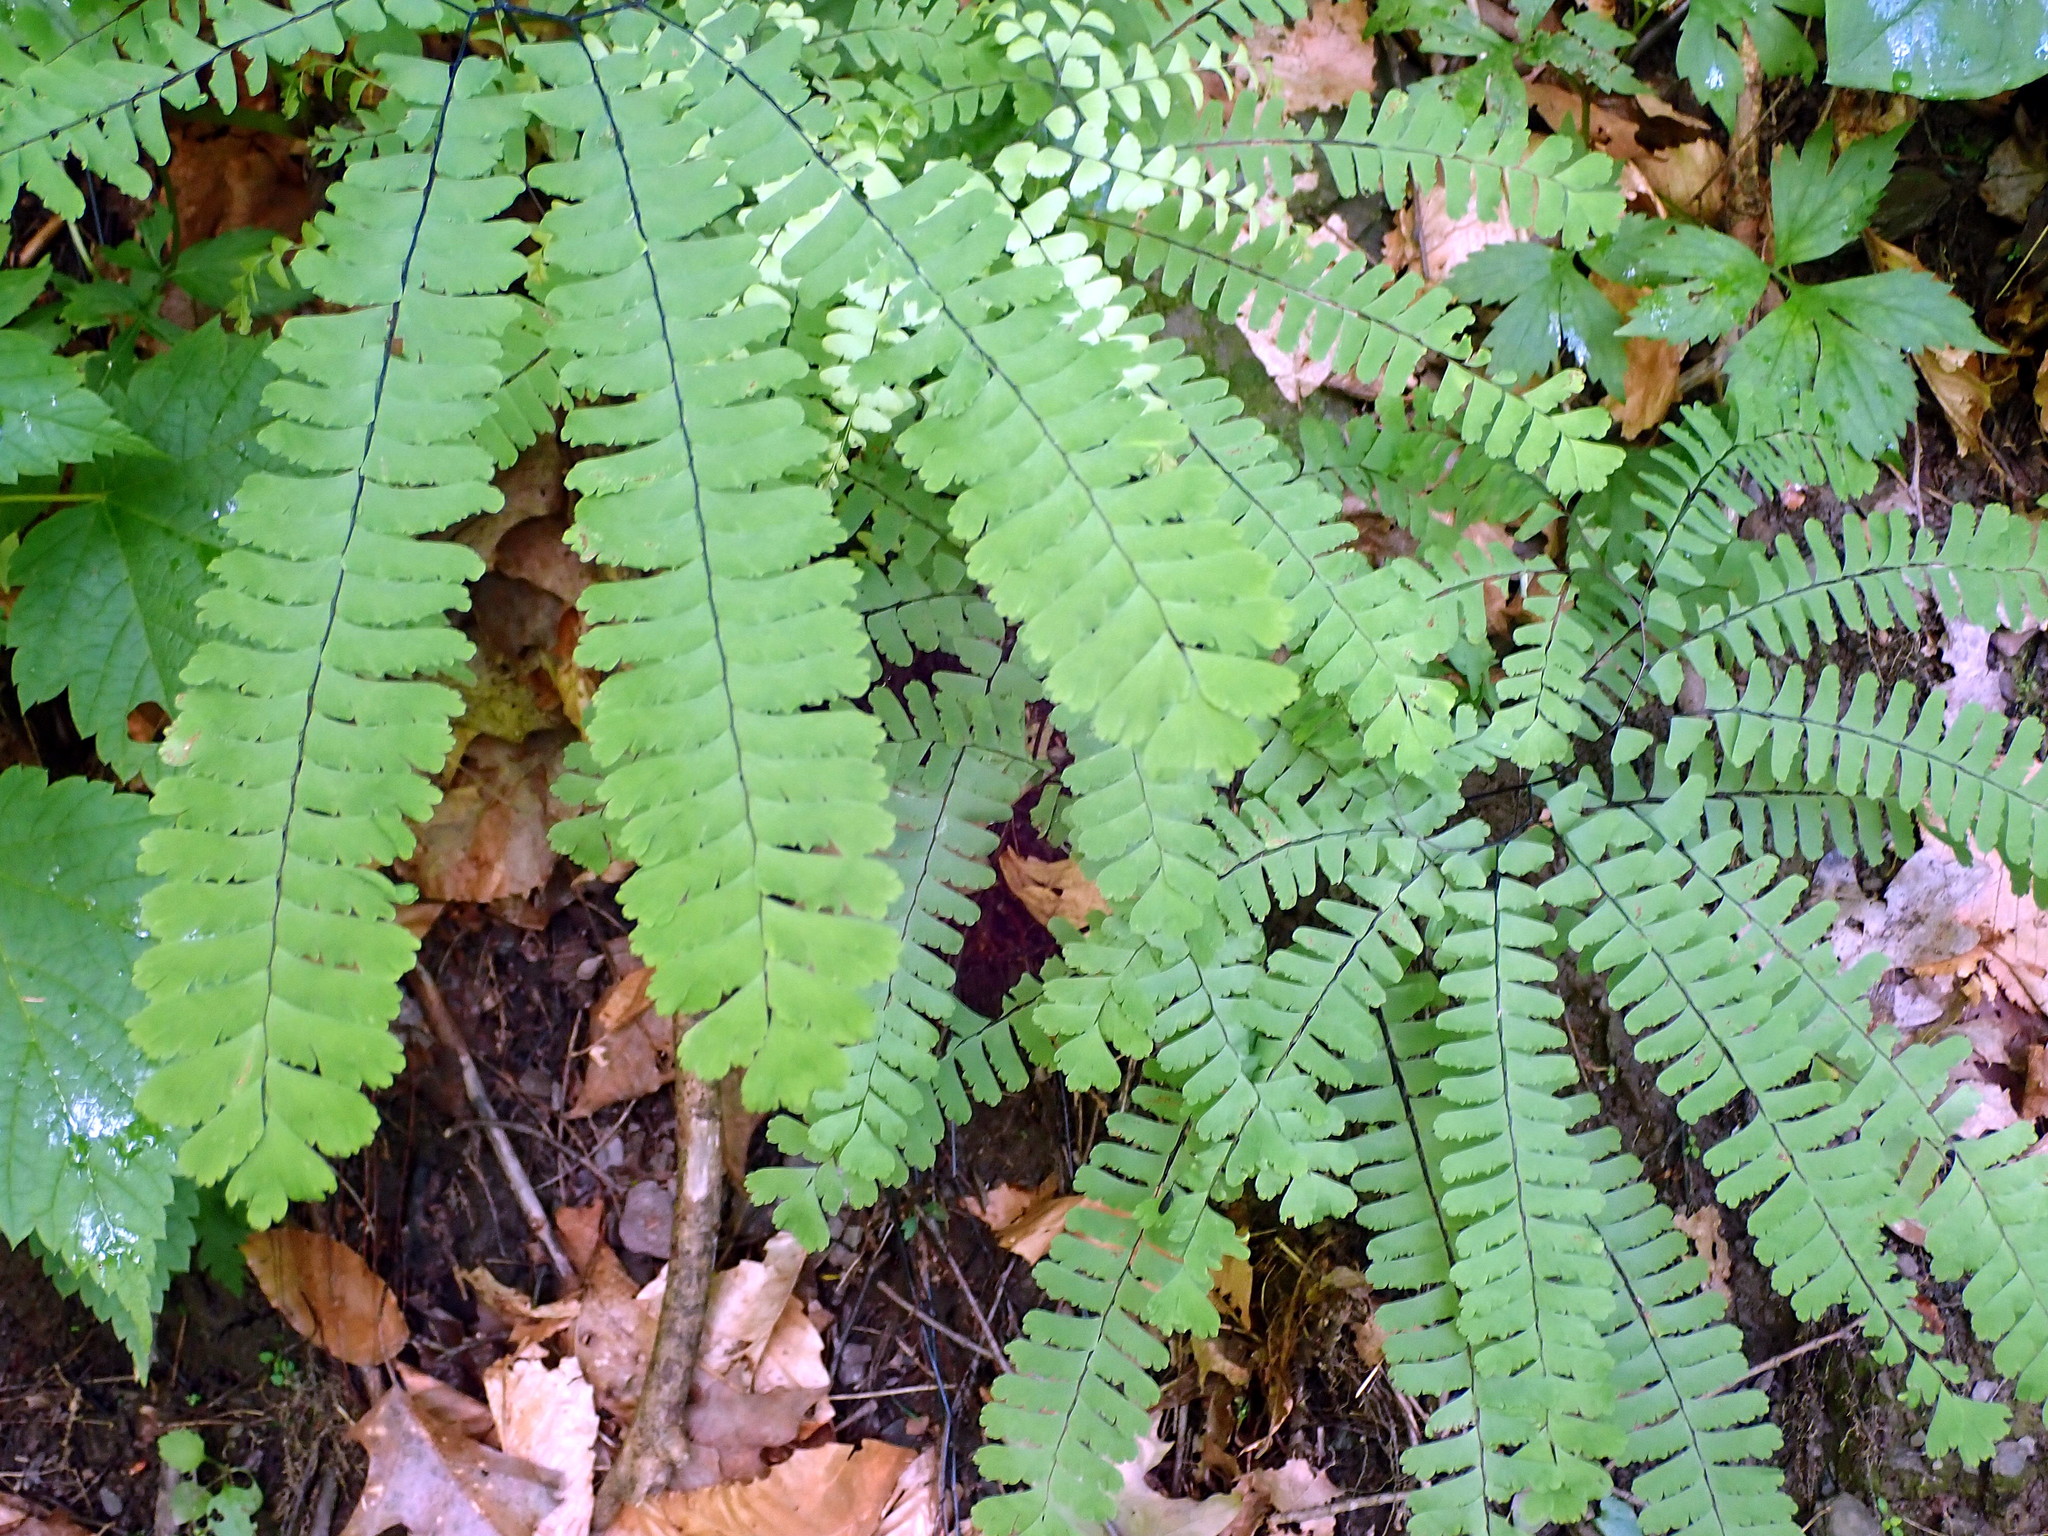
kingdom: Plantae
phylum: Tracheophyta
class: Polypodiopsida
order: Polypodiales
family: Pteridaceae
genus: Adiantum
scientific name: Adiantum pedatum
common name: Five-finger fern
